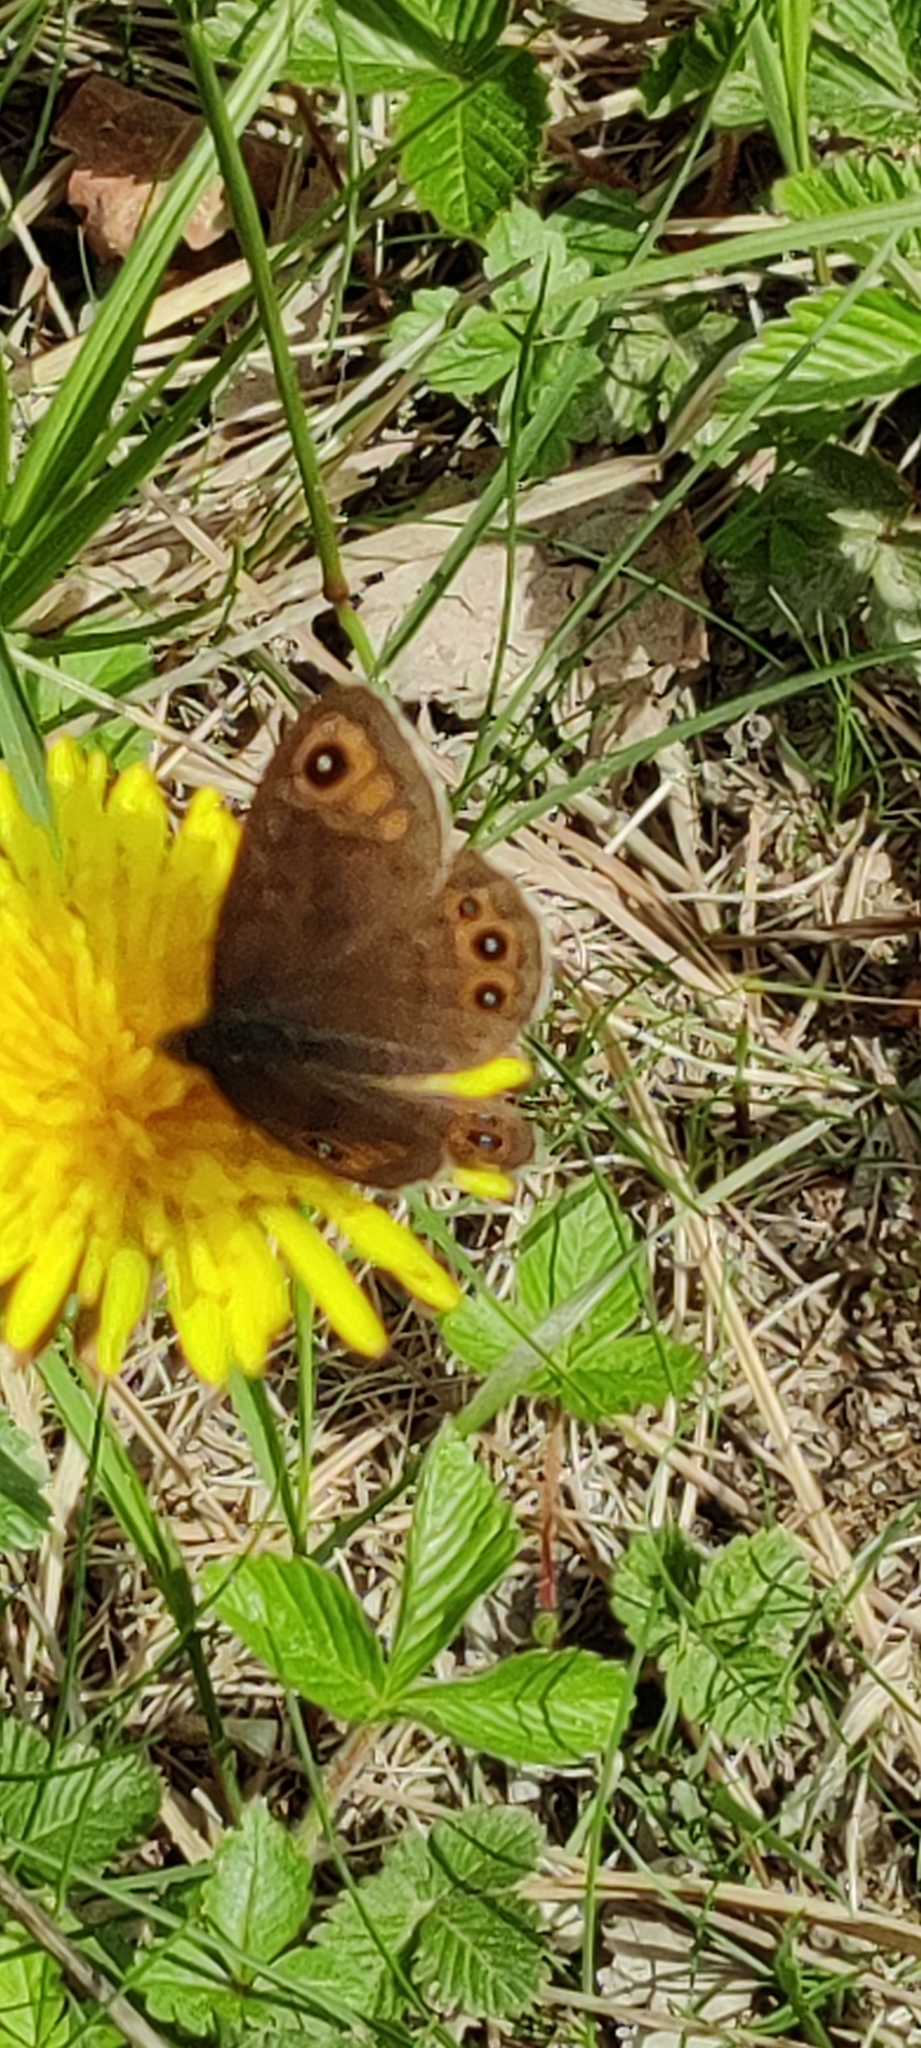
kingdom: Animalia
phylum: Arthropoda
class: Insecta
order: Lepidoptera
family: Nymphalidae
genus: Pararge
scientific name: Pararge petropolitana
